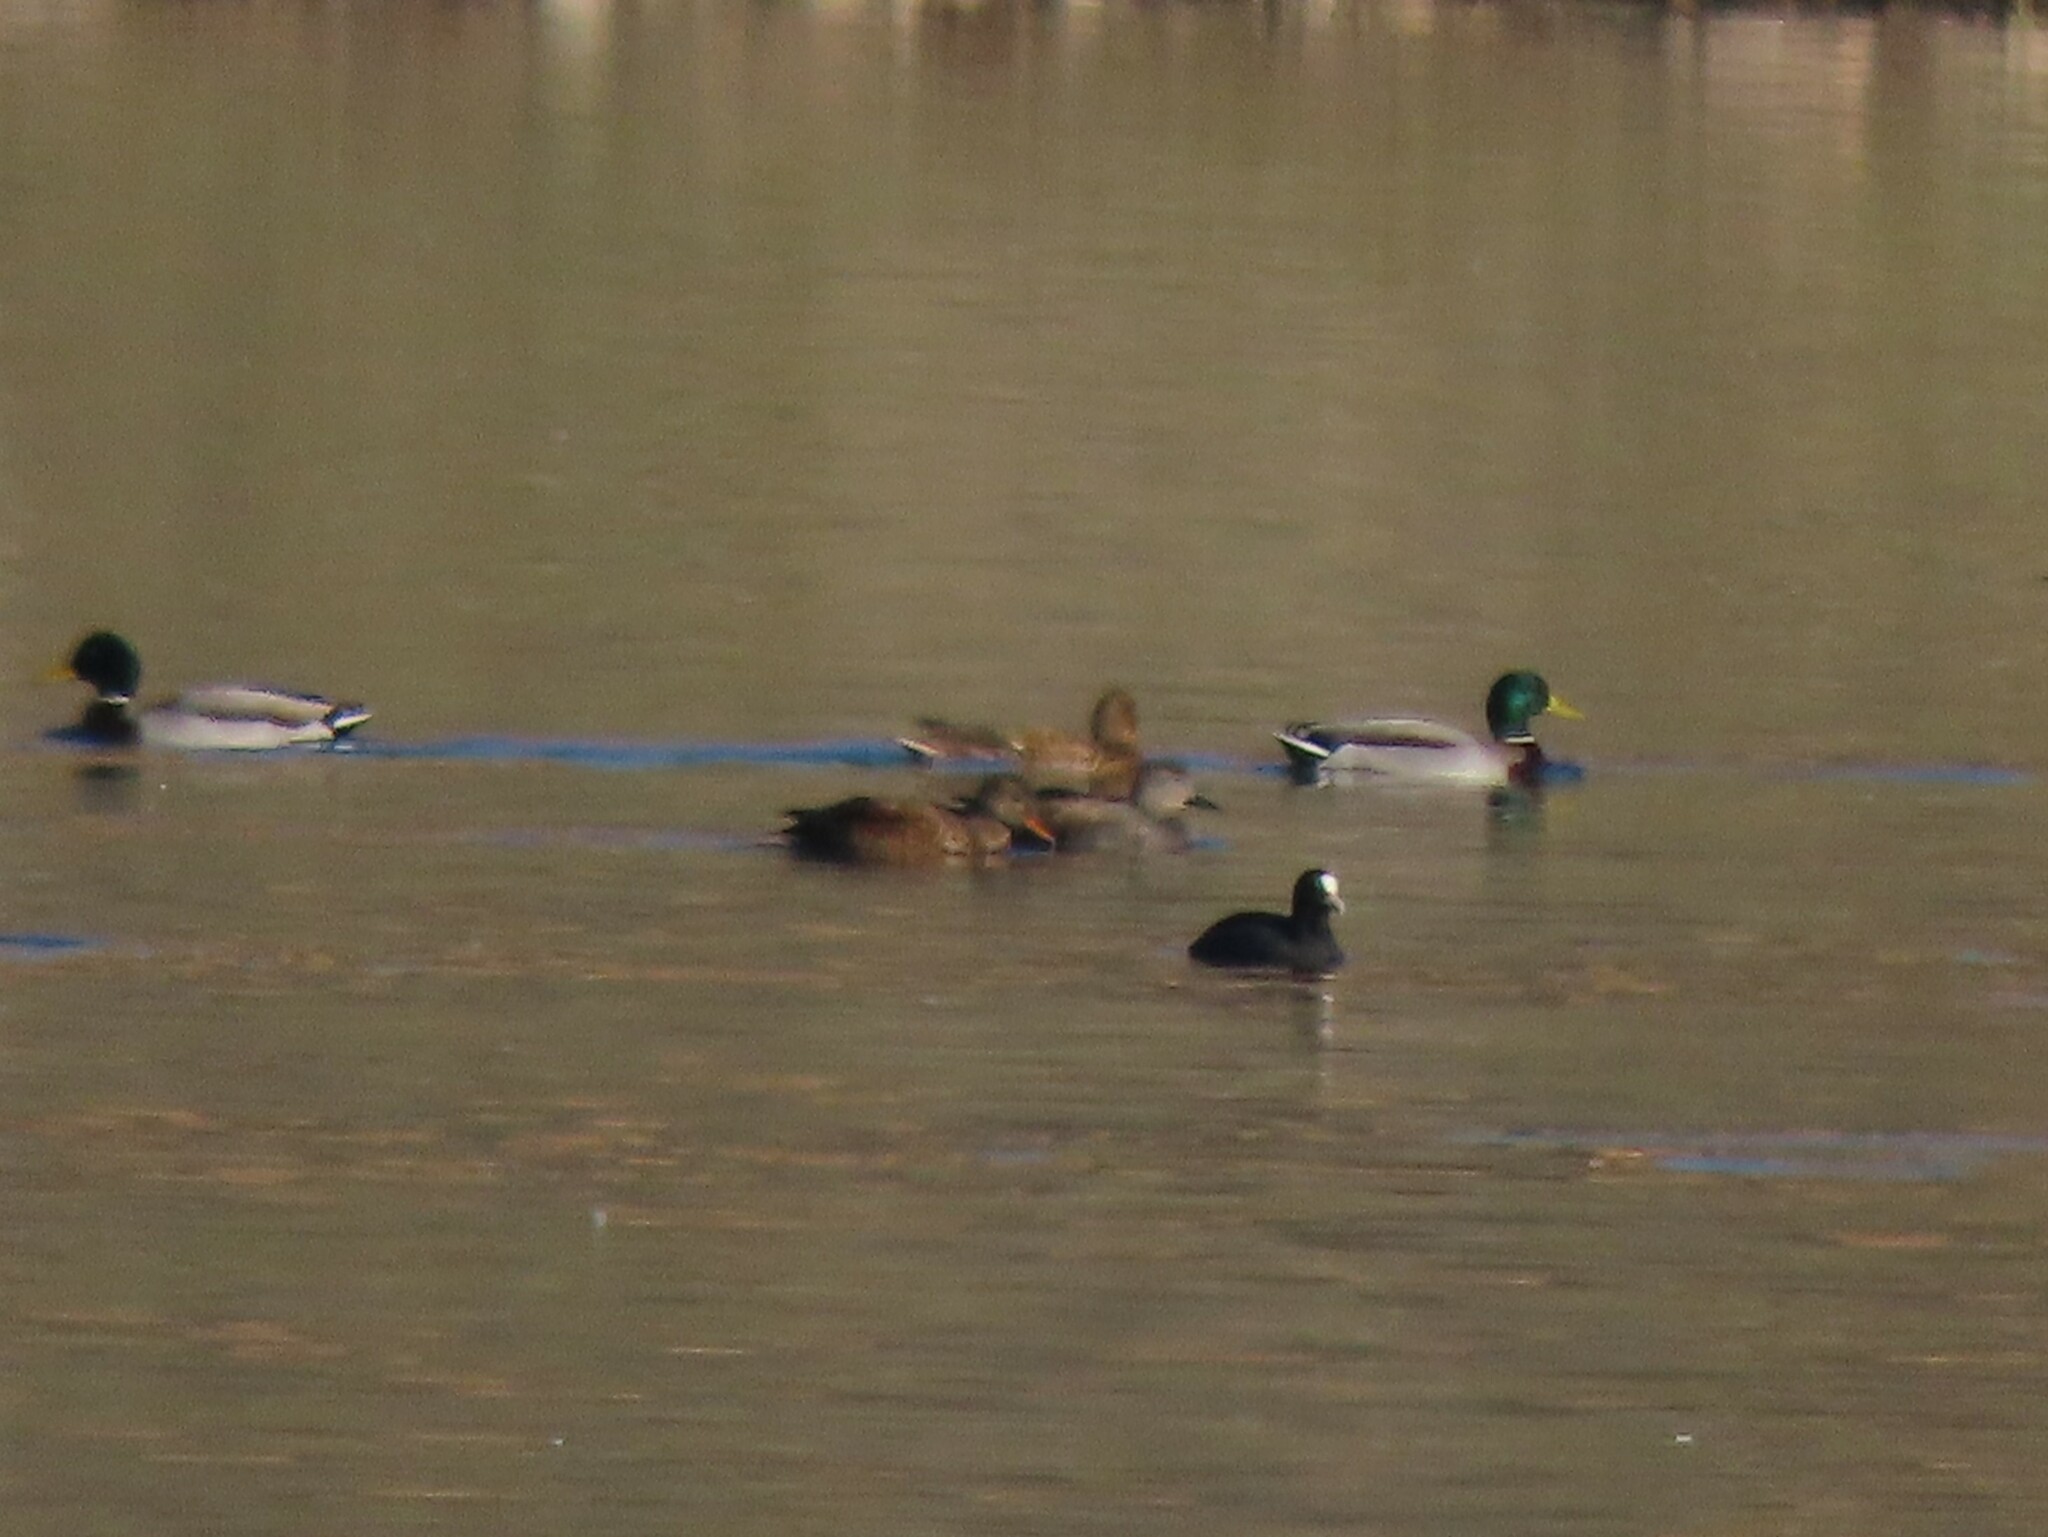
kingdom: Animalia
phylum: Chordata
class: Aves
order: Anseriformes
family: Anatidae
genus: Mareca
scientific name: Mareca strepera
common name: Gadwall
